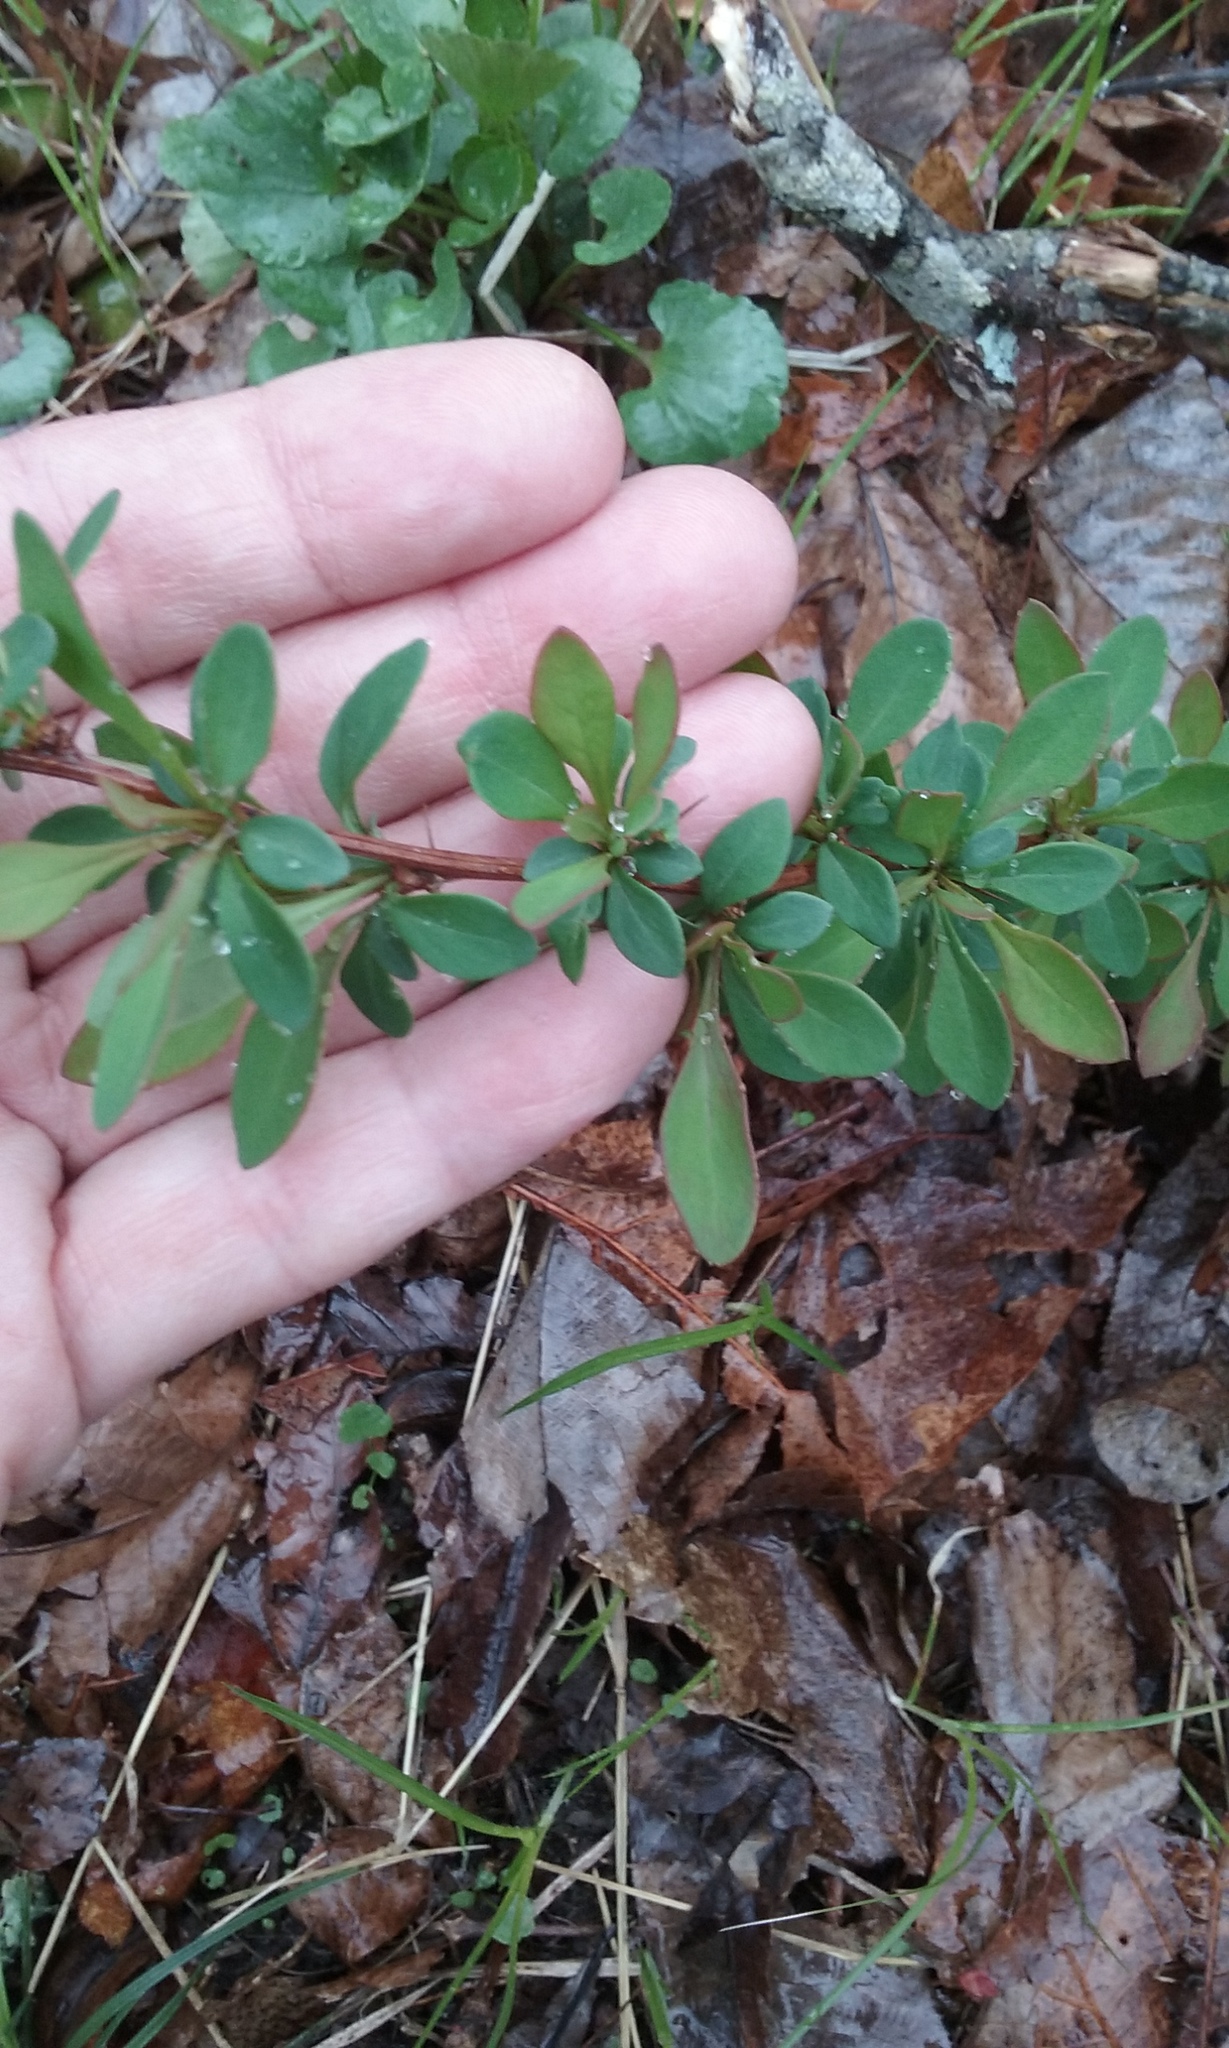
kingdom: Plantae
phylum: Tracheophyta
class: Magnoliopsida
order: Ranunculales
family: Berberidaceae
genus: Berberis
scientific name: Berberis thunbergii
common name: Japanese barberry
